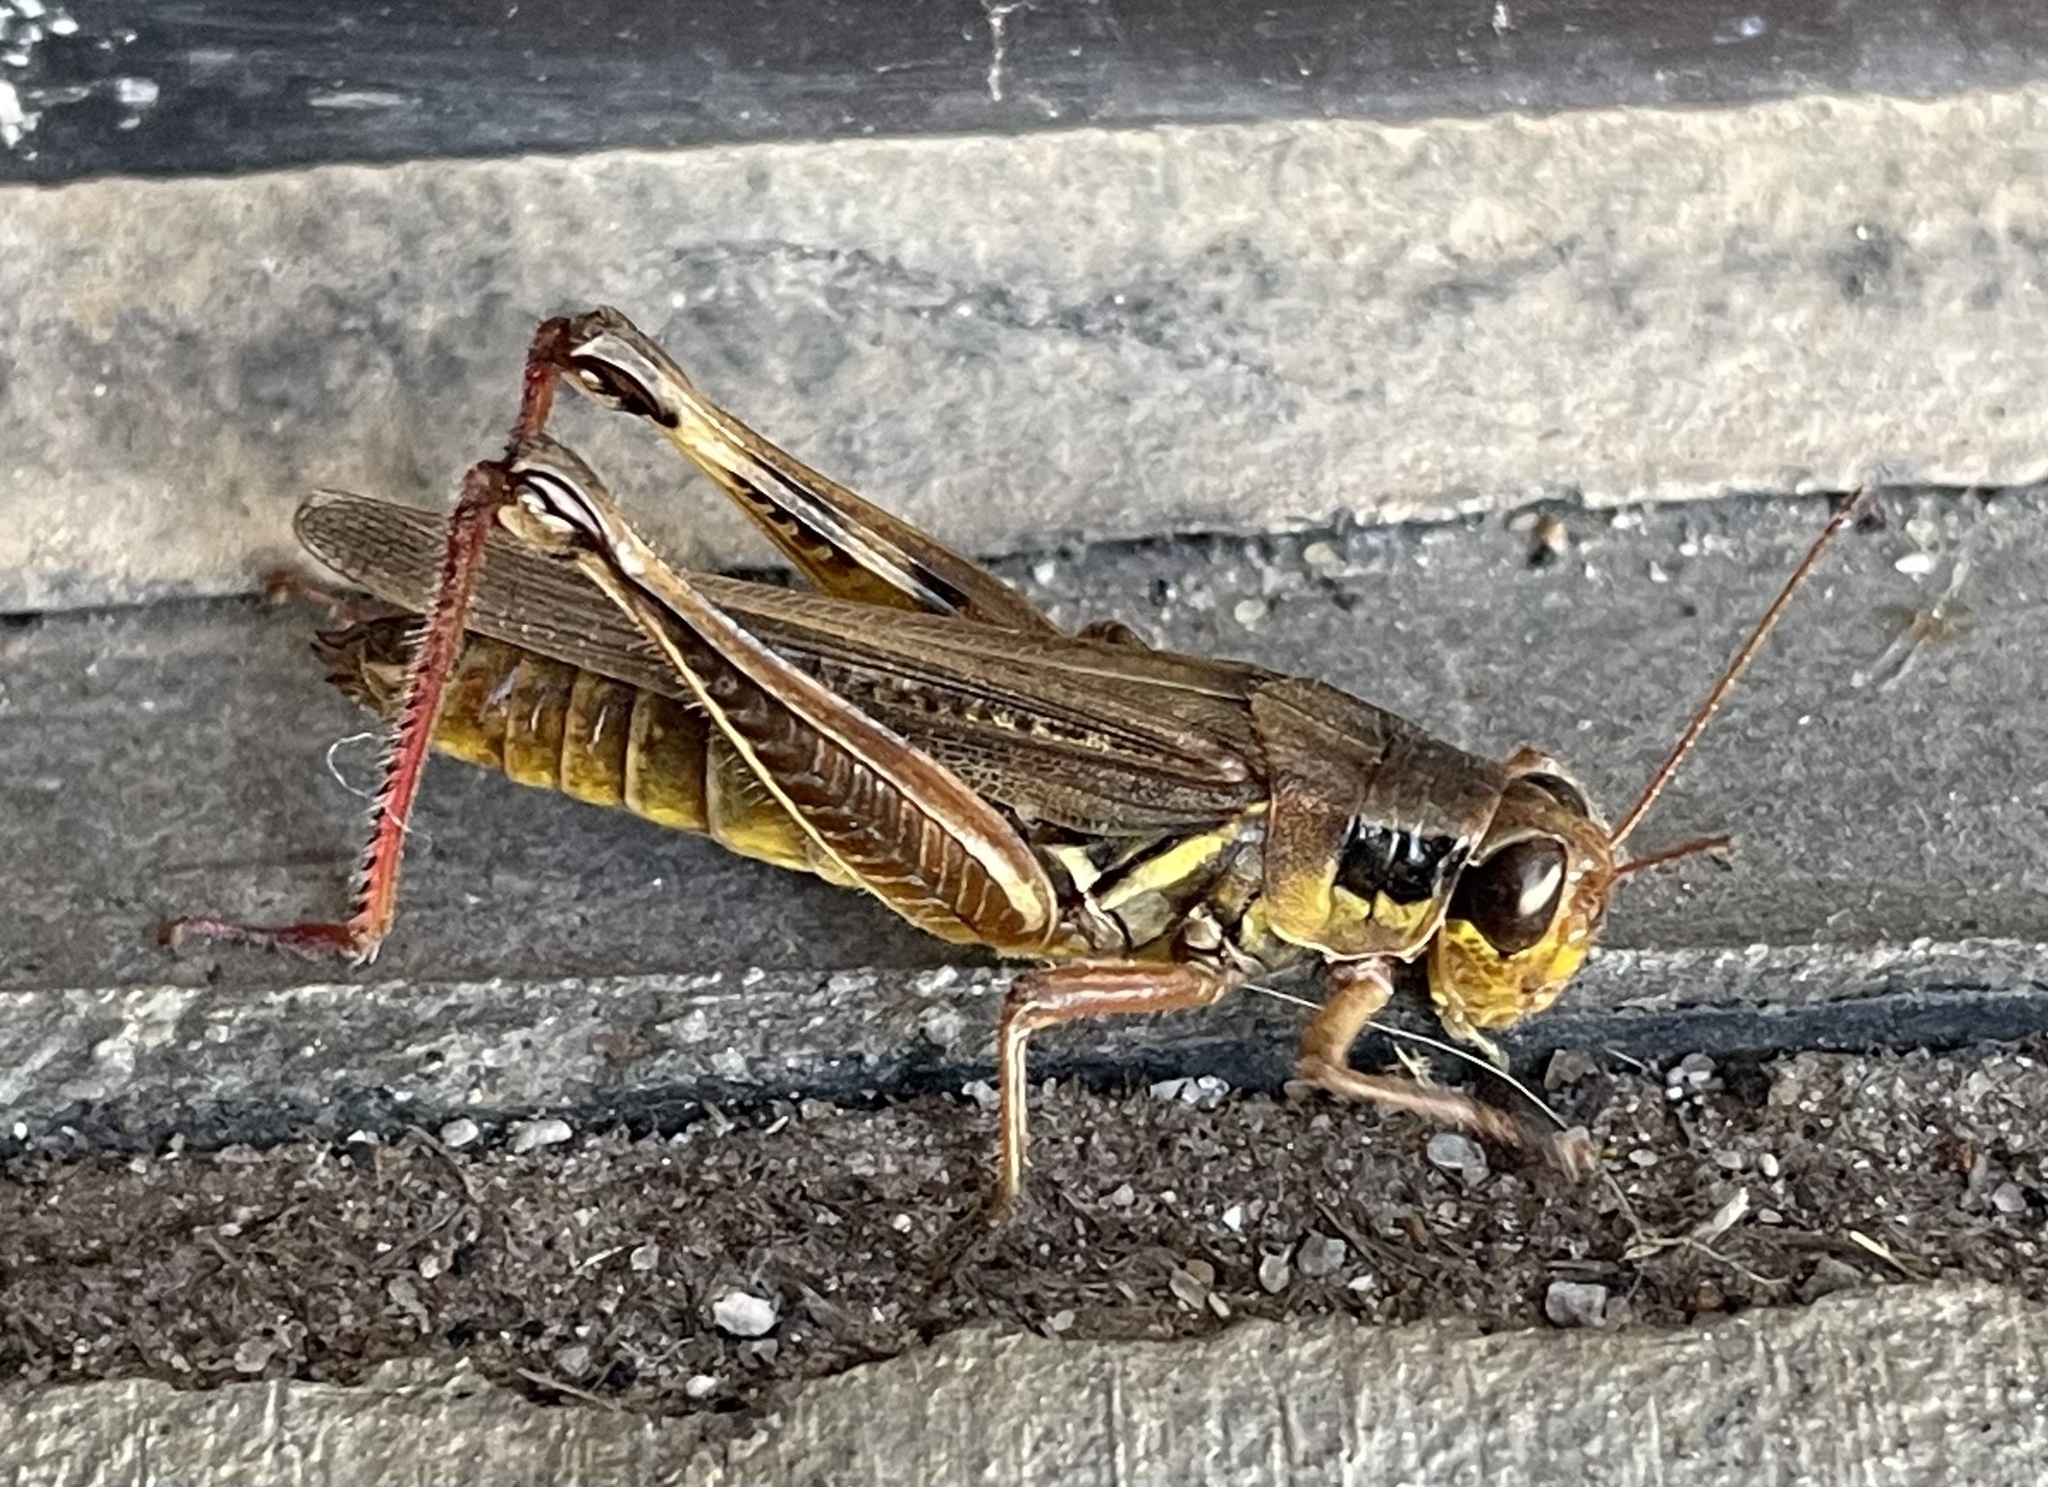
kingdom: Animalia
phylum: Arthropoda
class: Insecta
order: Orthoptera
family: Acrididae
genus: Melanoplus
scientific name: Melanoplus femurrubrum
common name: Red-legged grasshopper
